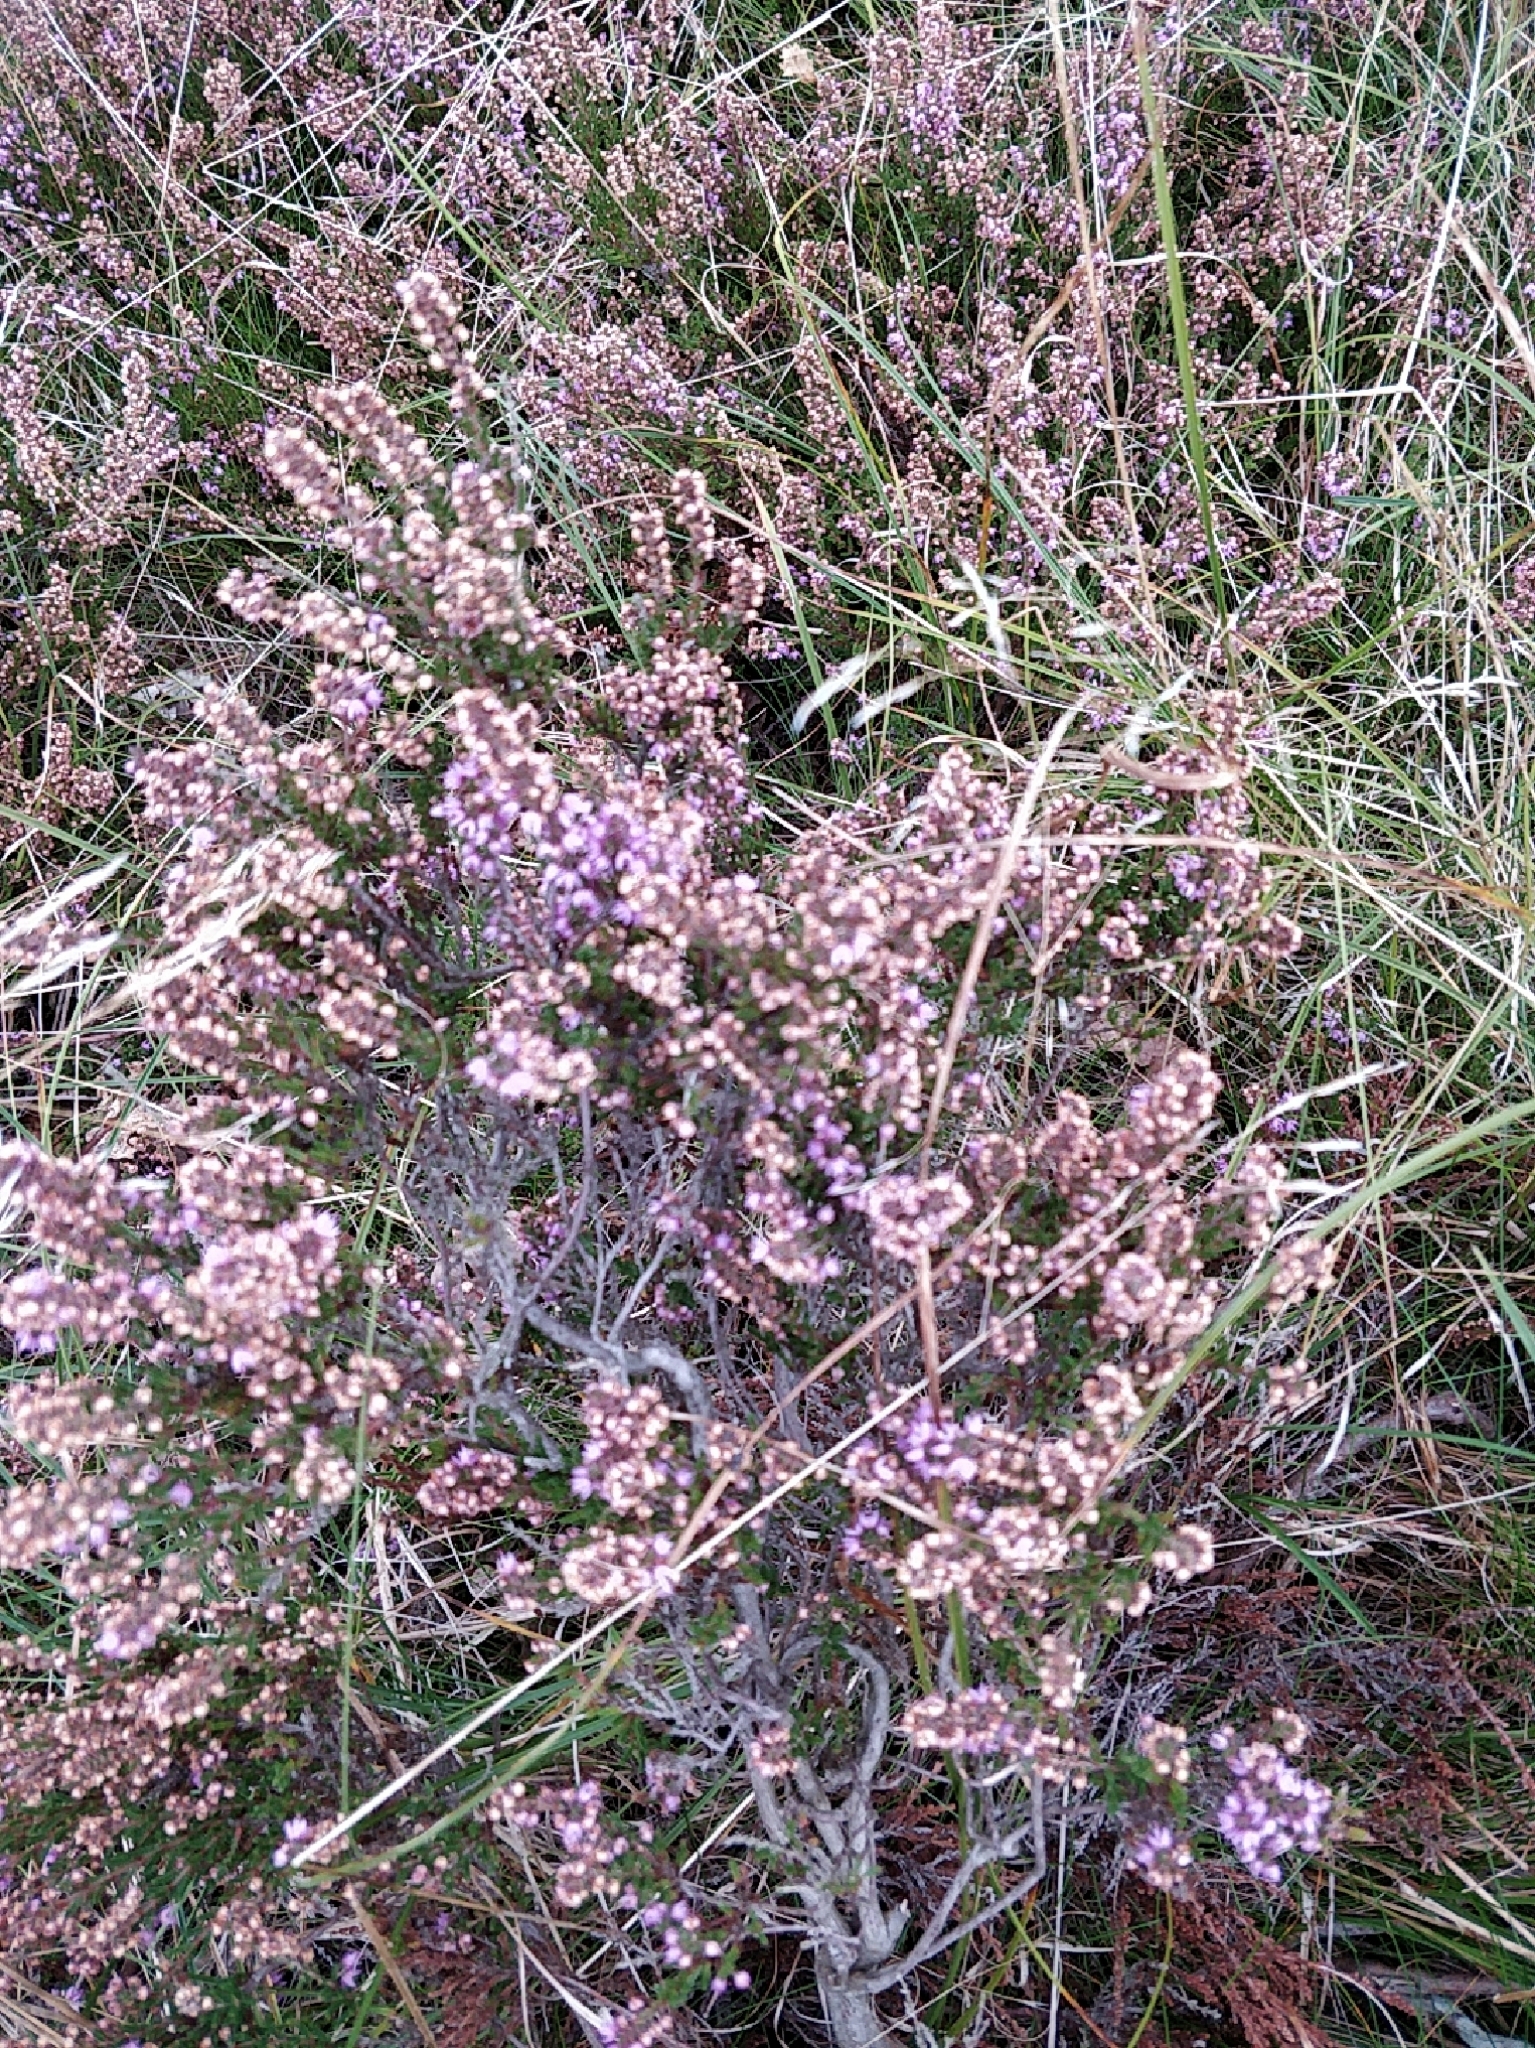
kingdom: Plantae
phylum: Tracheophyta
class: Magnoliopsida
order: Ericales
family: Ericaceae
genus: Calluna
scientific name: Calluna vulgaris
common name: Heather
